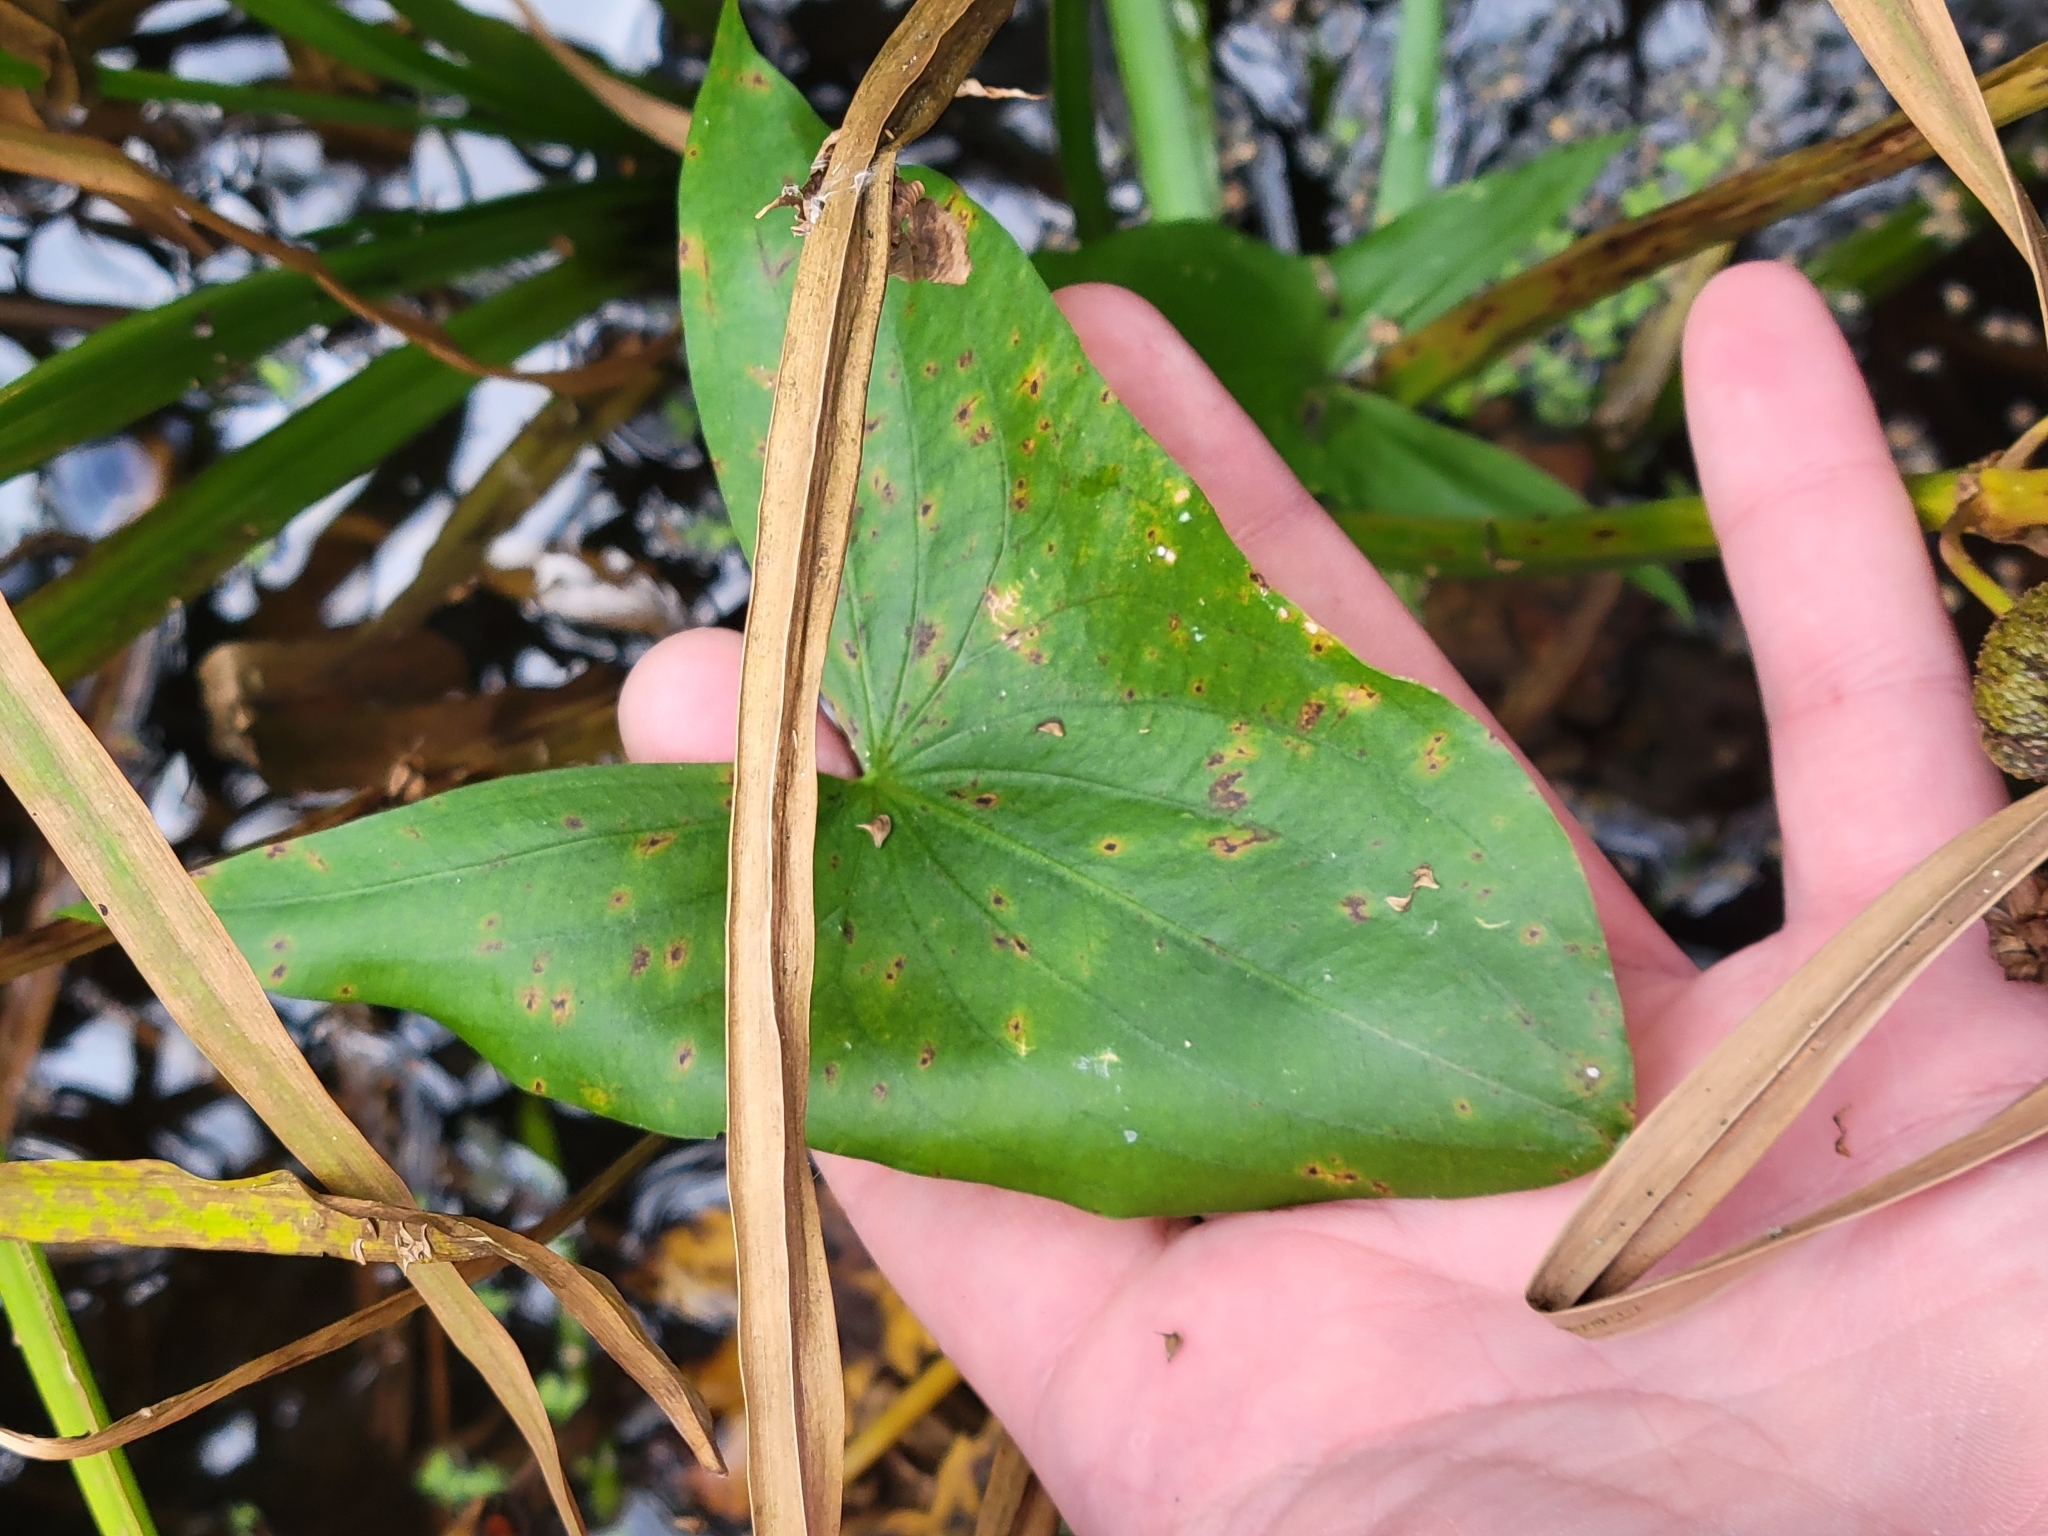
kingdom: Plantae
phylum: Tracheophyta
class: Liliopsida
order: Alismatales
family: Alismataceae
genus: Sagittaria
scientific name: Sagittaria latifolia
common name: Duck-potato
